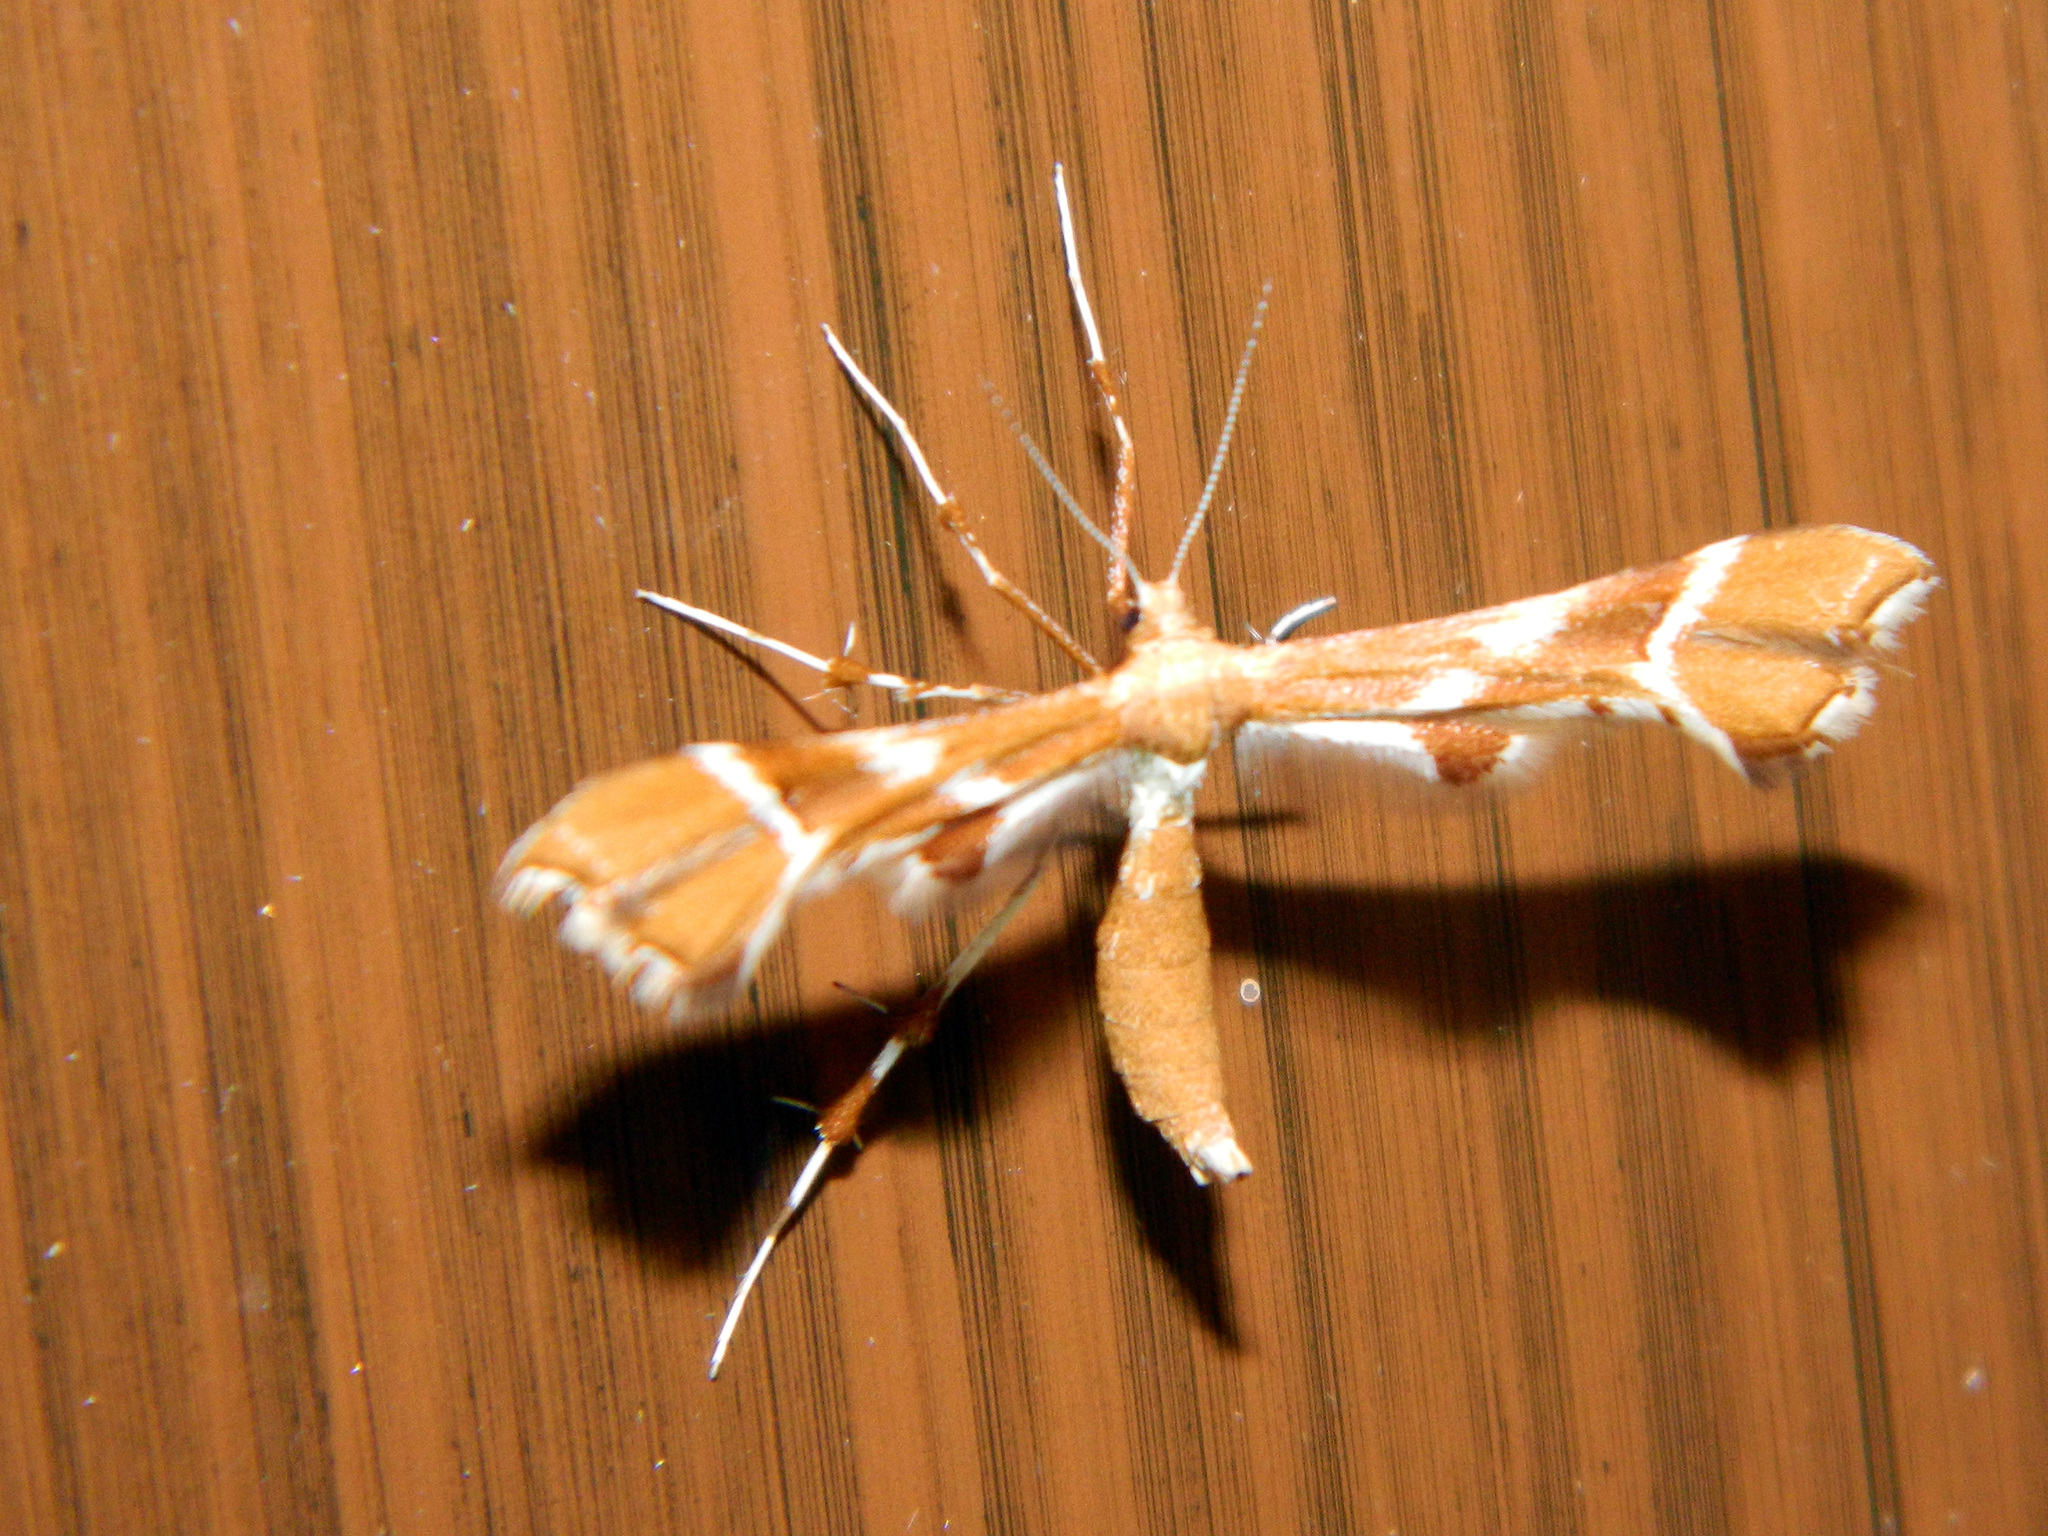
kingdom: Animalia
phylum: Arthropoda
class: Insecta
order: Lepidoptera
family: Pterophoridae
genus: Cnaemidophorus
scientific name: Cnaemidophorus rhododactyla
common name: Rose plume
